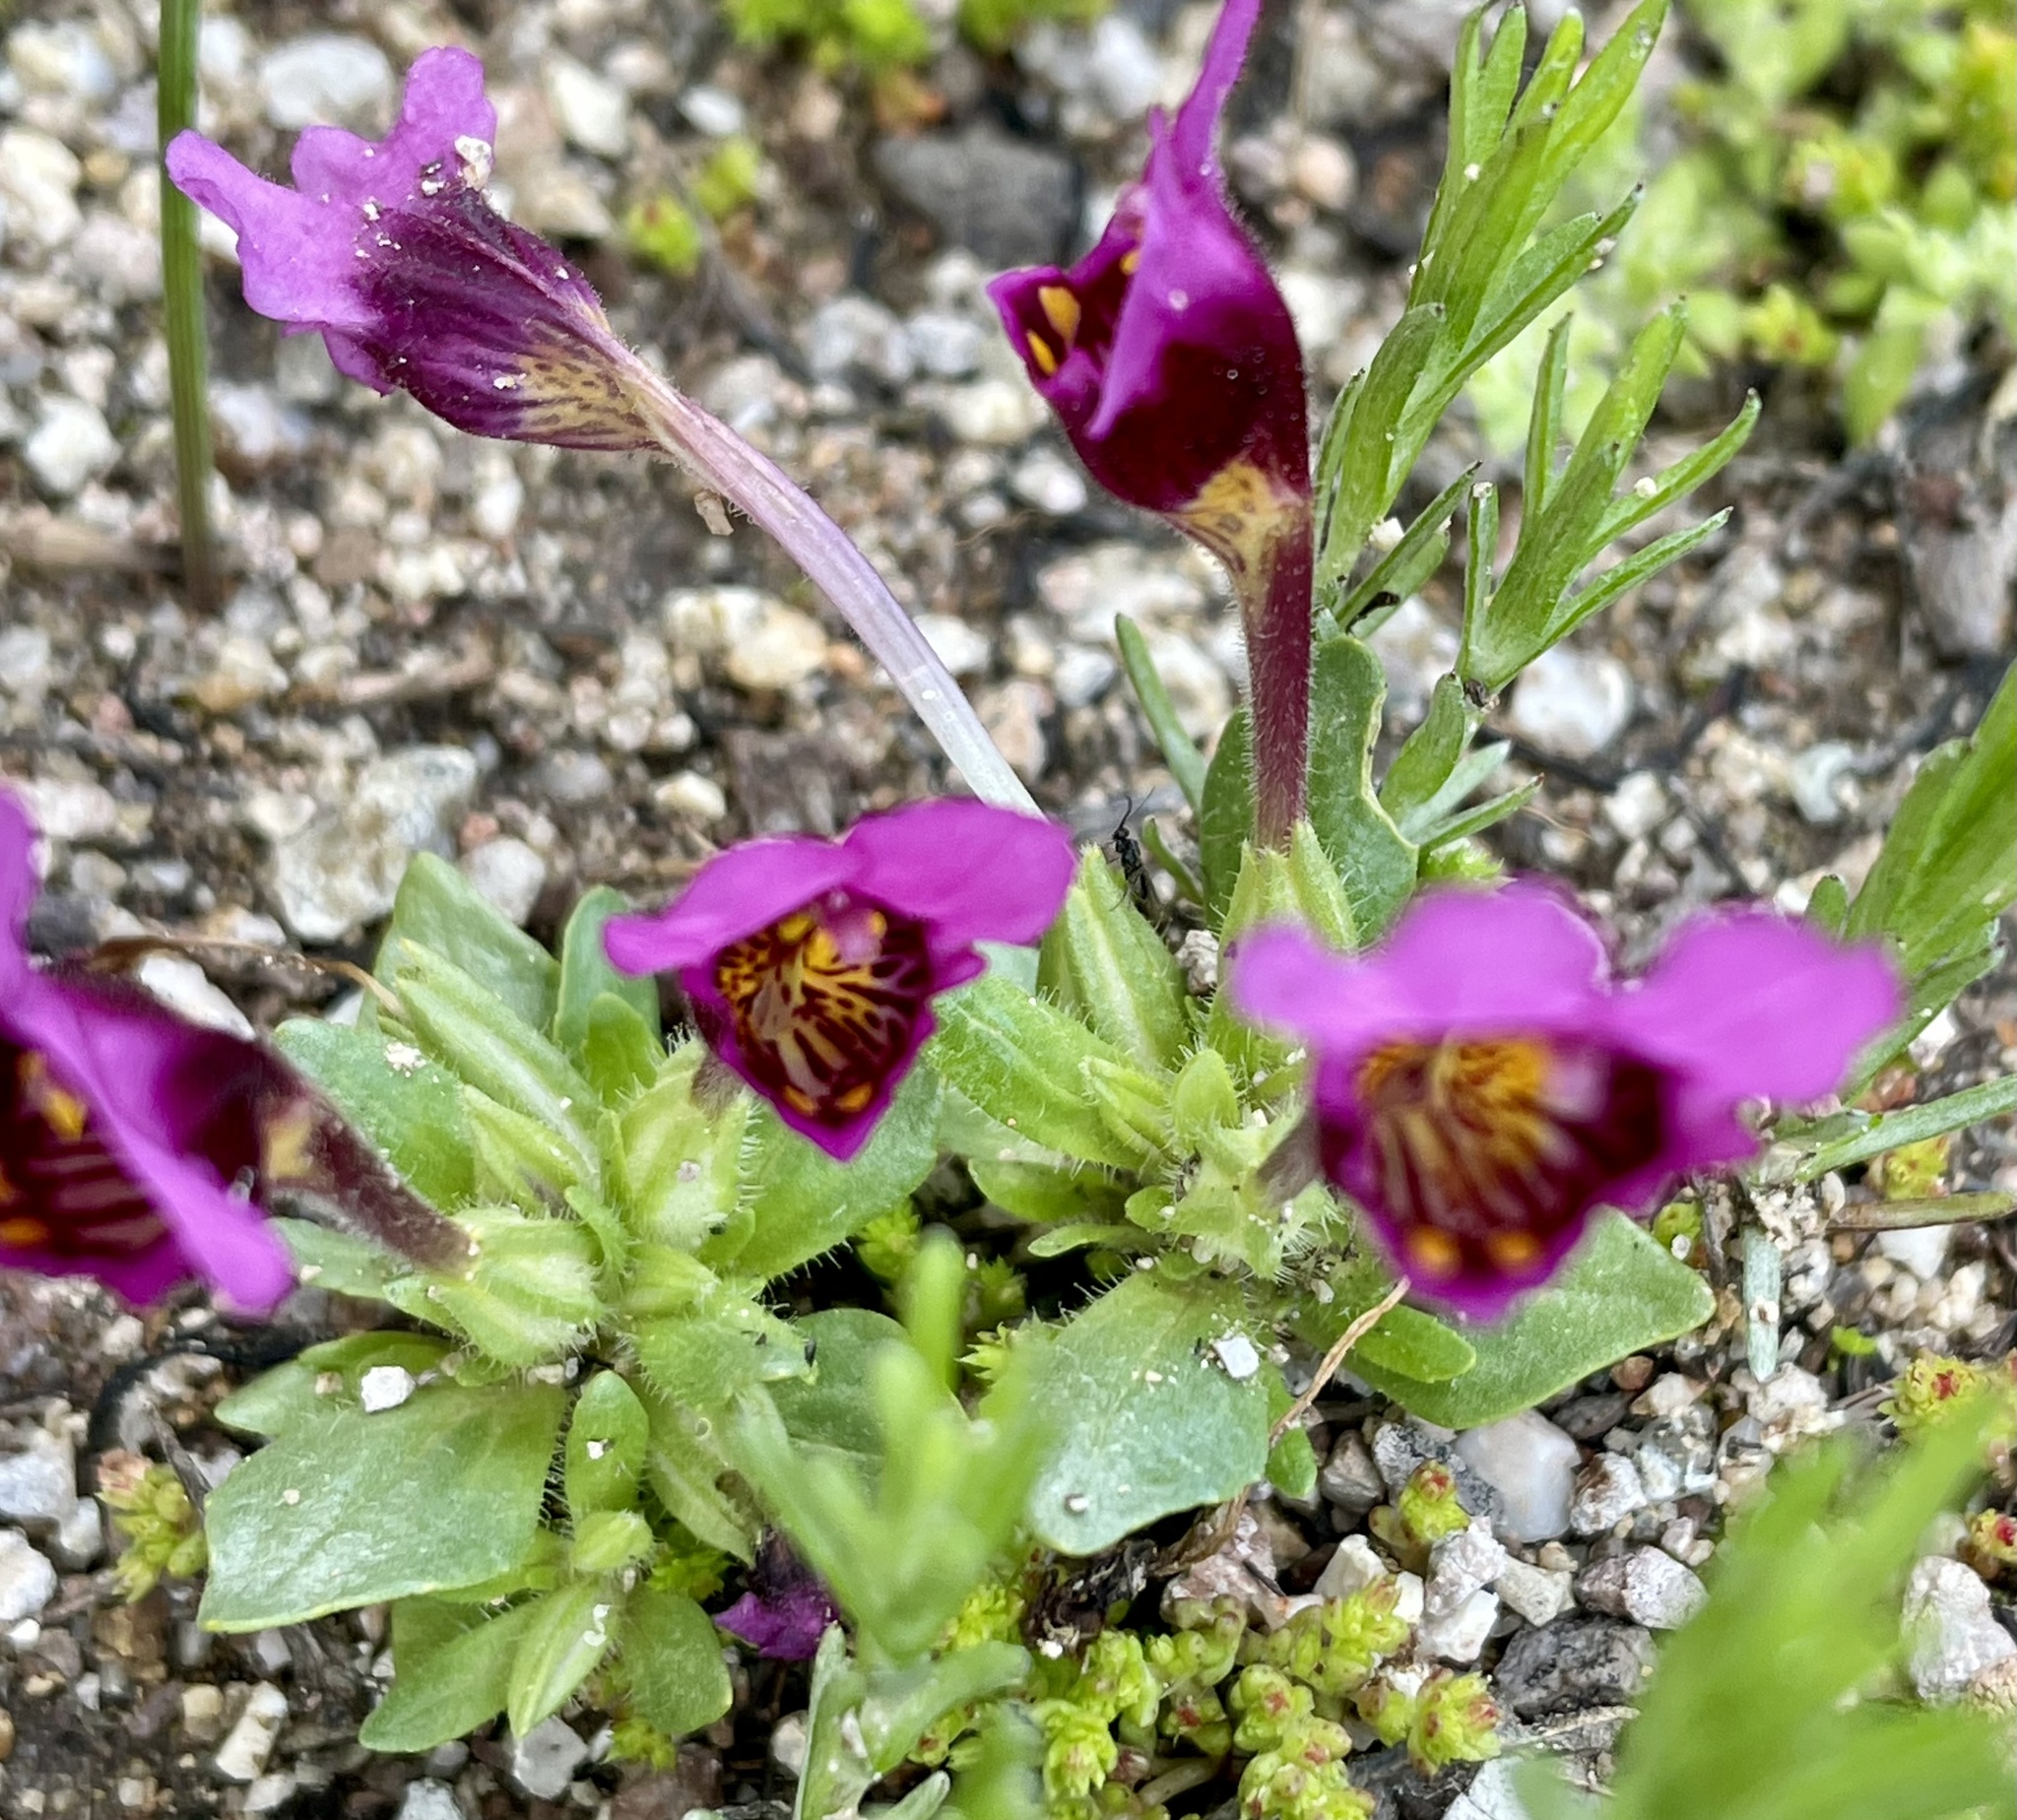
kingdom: Plantae
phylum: Tracheophyta
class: Magnoliopsida
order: Lamiales
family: Phrymaceae
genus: Diplacus
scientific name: Diplacus douglasii
